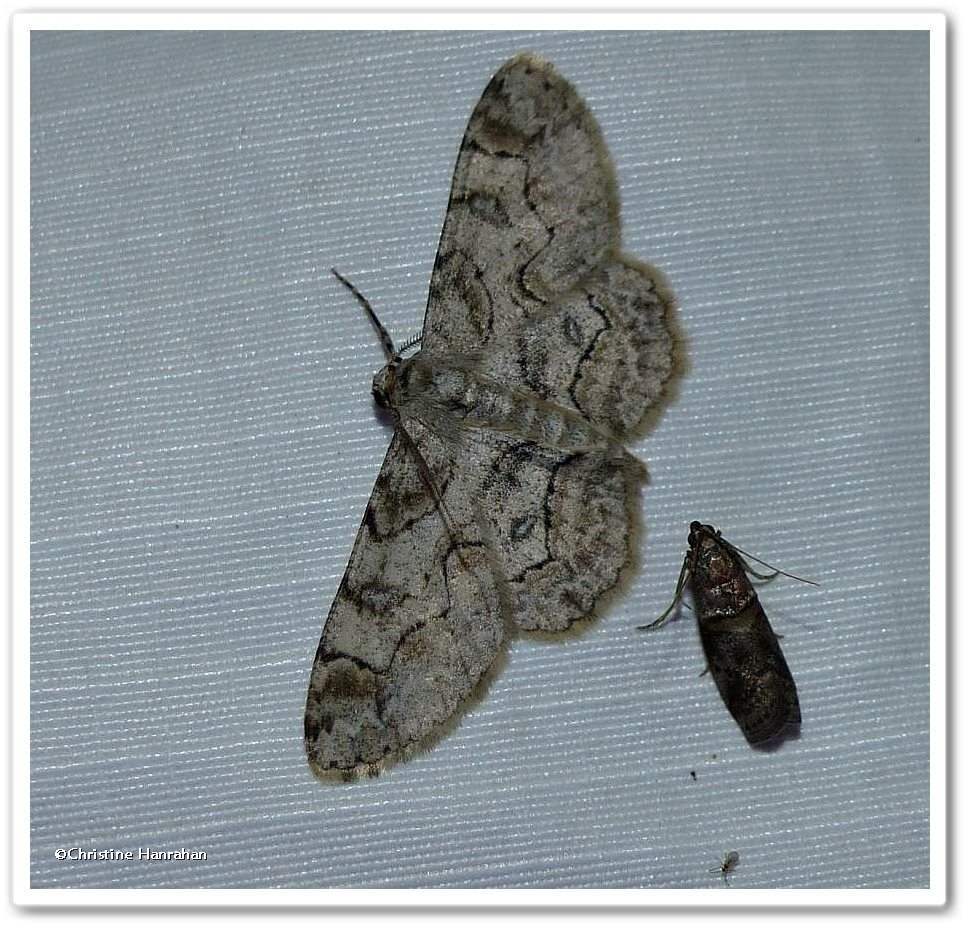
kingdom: Animalia
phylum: Arthropoda
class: Insecta
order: Lepidoptera
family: Geometridae
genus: Iridopsis
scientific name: Iridopsis larvaria
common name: Bent-line gray
